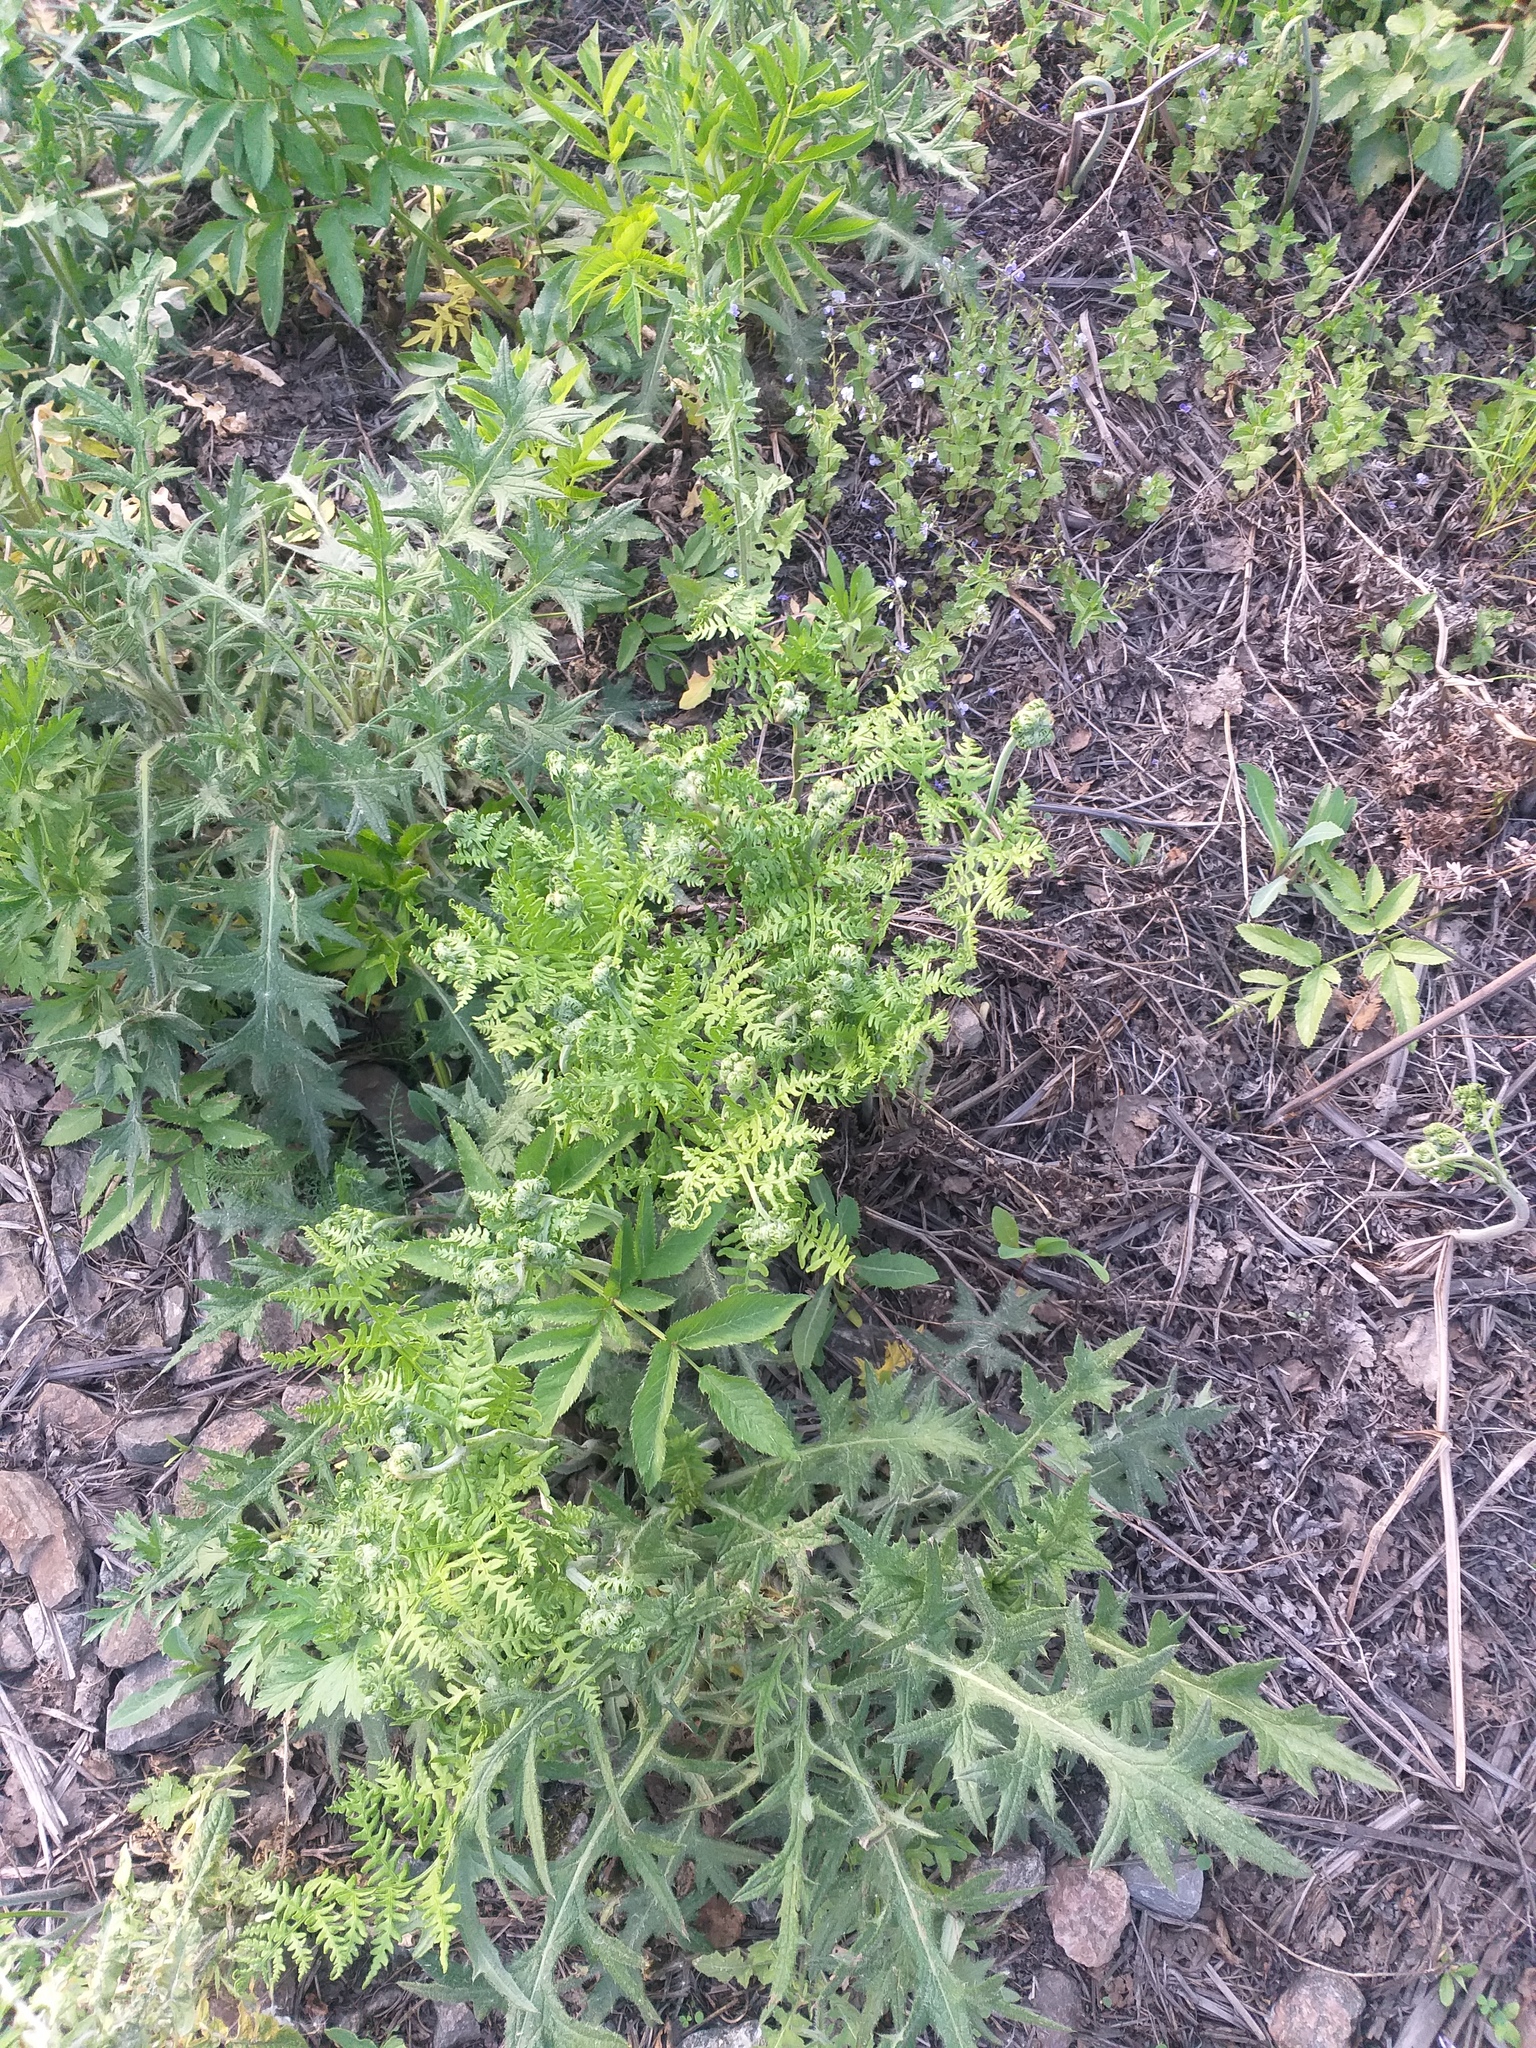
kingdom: Plantae
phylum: Tracheophyta
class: Polypodiopsida
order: Polypodiales
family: Dennstaedtiaceae
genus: Pteridium
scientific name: Pteridium aquilinum
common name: Bracken
